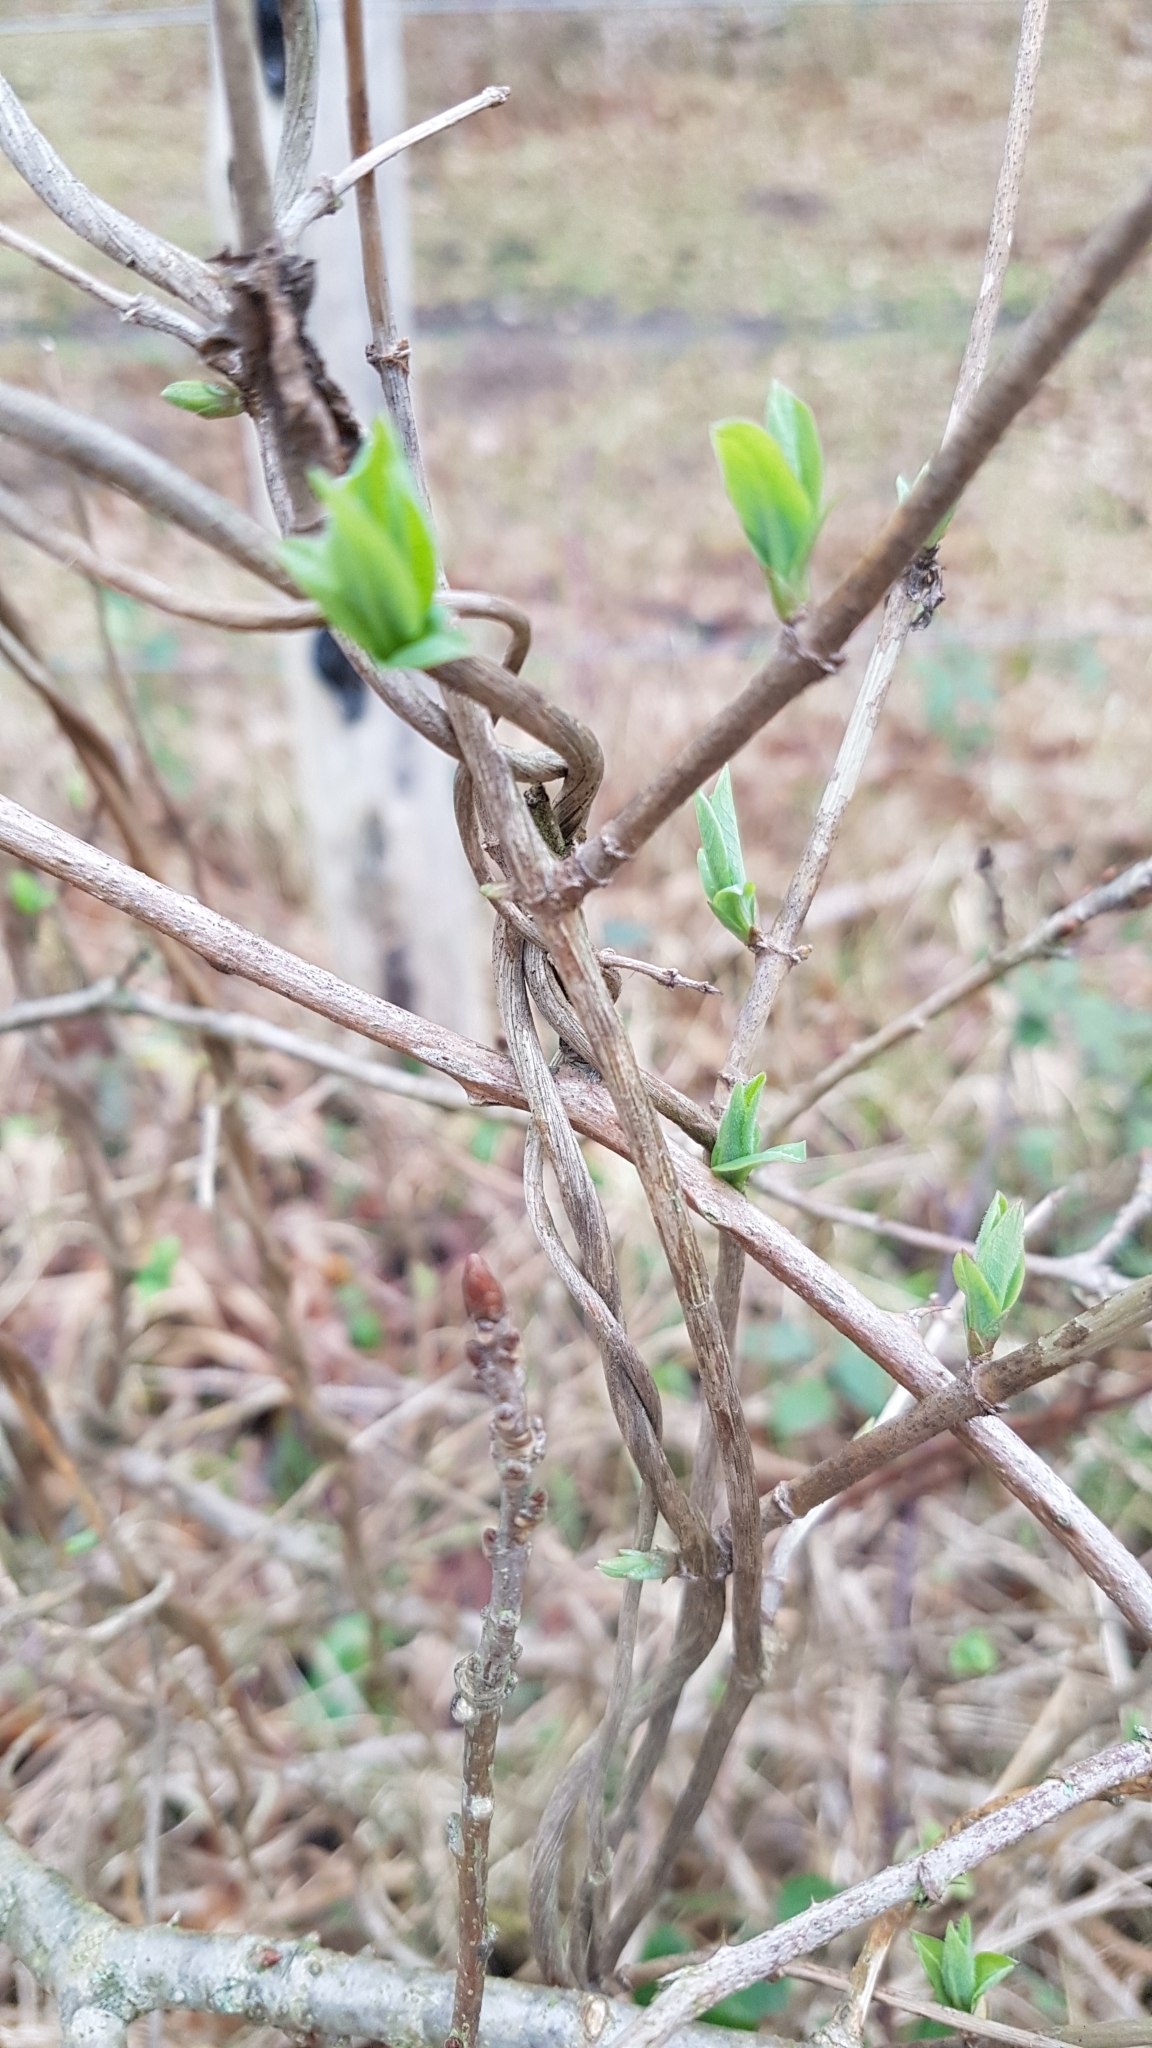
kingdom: Plantae
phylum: Tracheophyta
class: Magnoliopsida
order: Dipsacales
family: Caprifoliaceae
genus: Lonicera
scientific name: Lonicera periclymenum
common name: European honeysuckle
